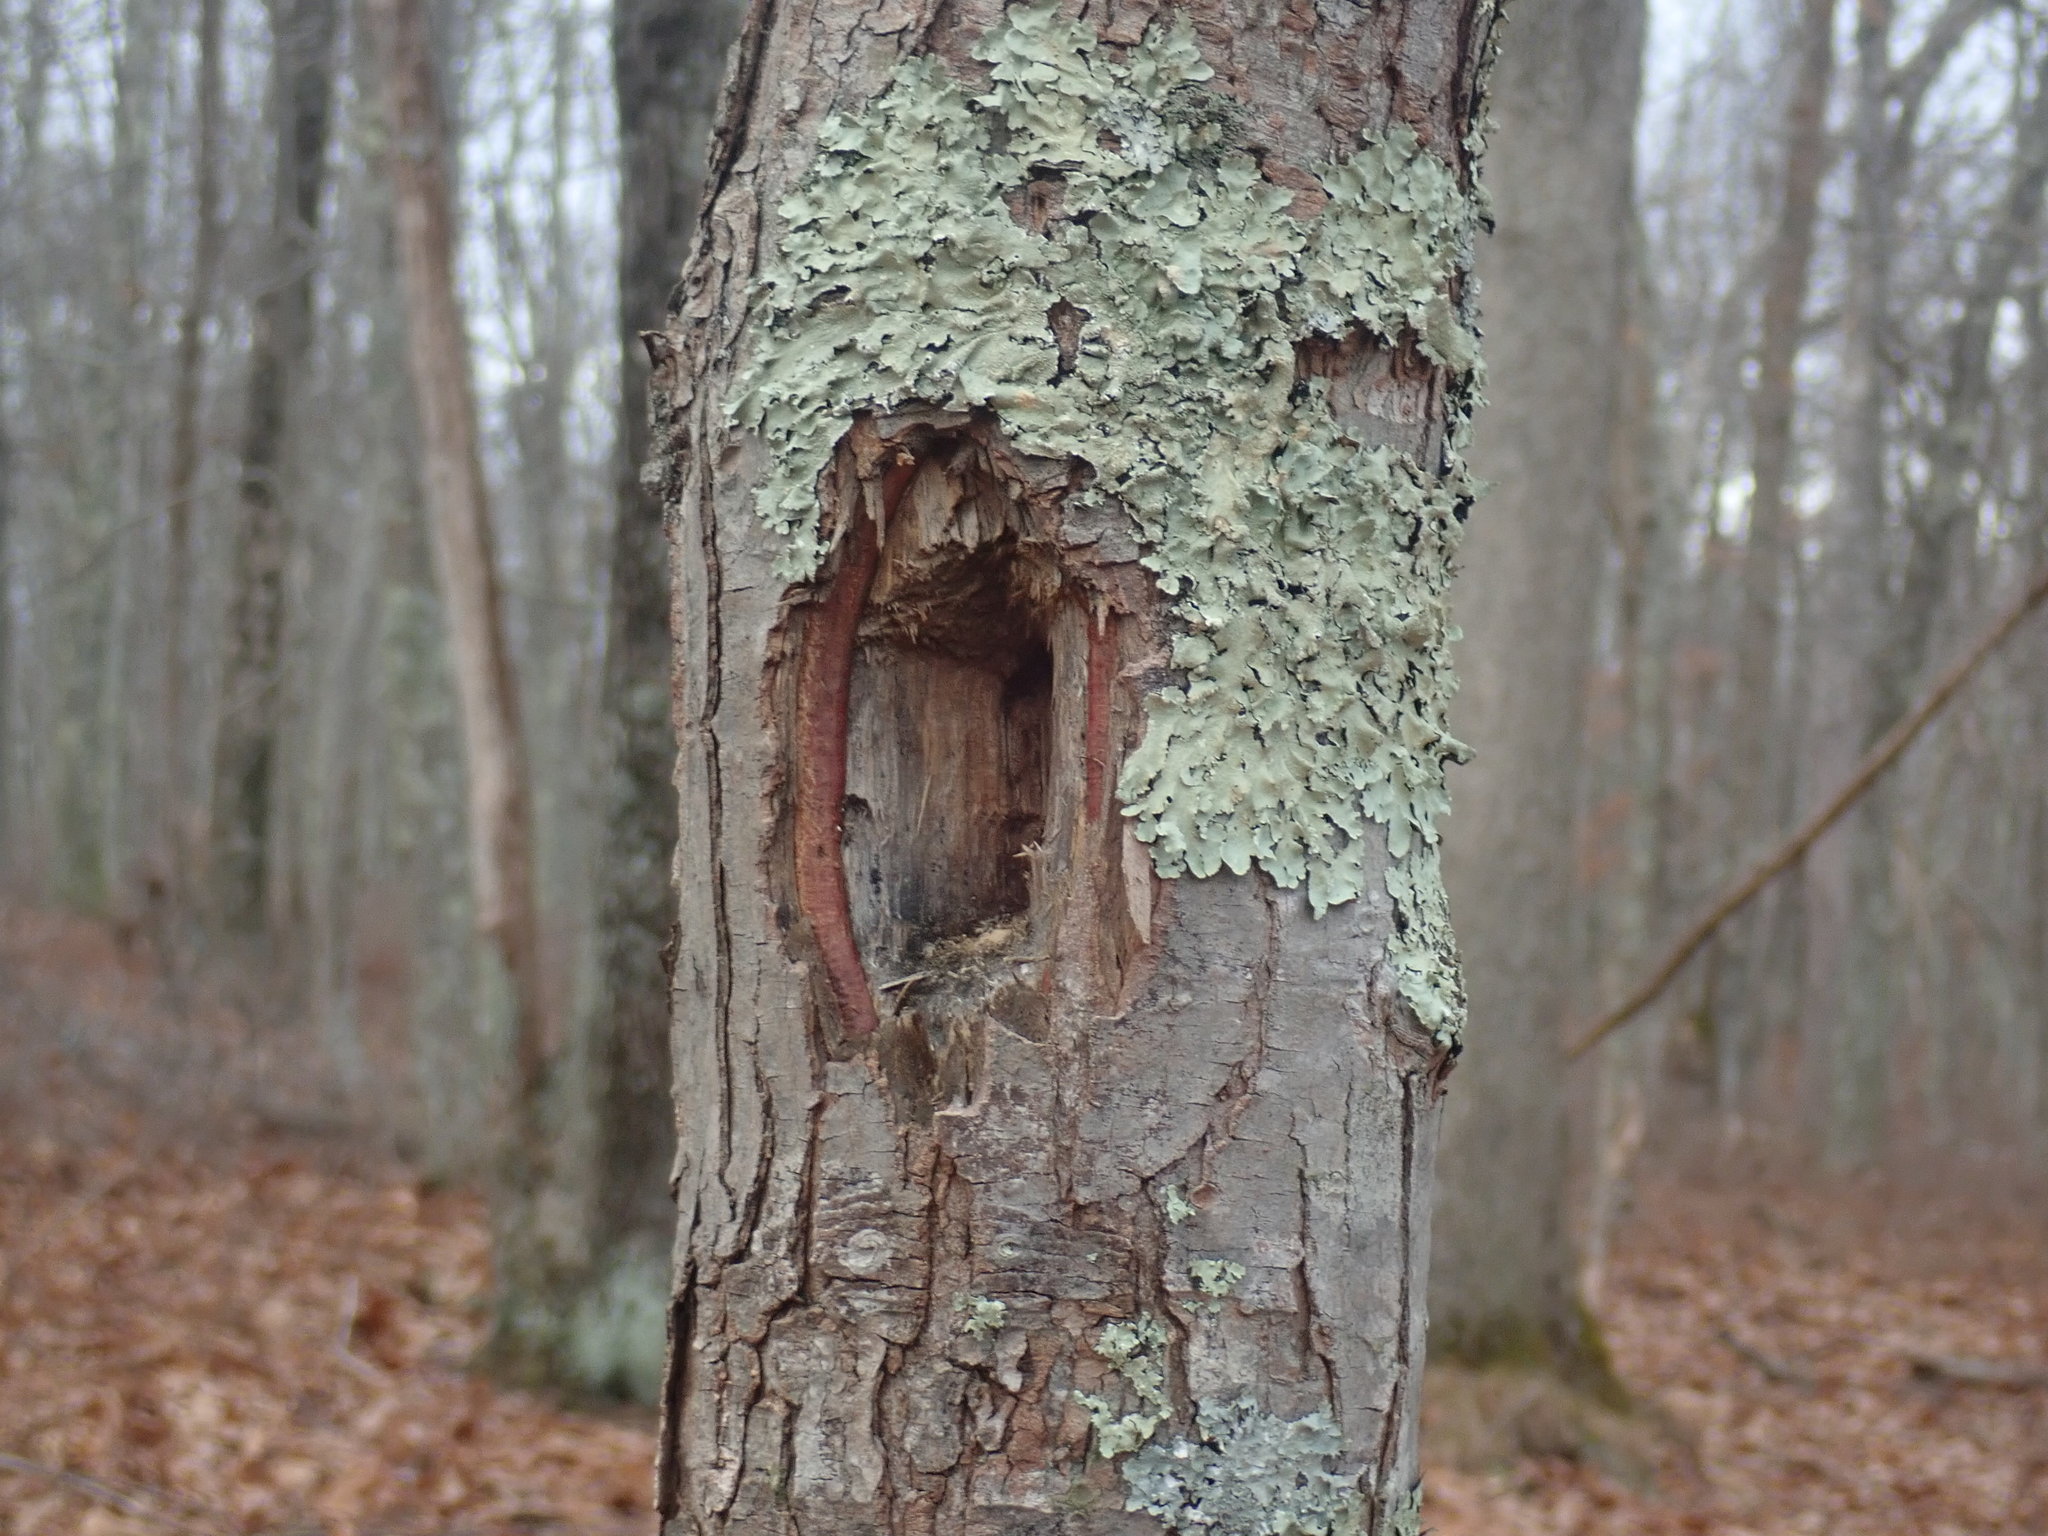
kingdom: Animalia
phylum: Chordata
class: Aves
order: Piciformes
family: Picidae
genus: Dryocopus
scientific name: Dryocopus pileatus
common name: Pileated woodpecker
